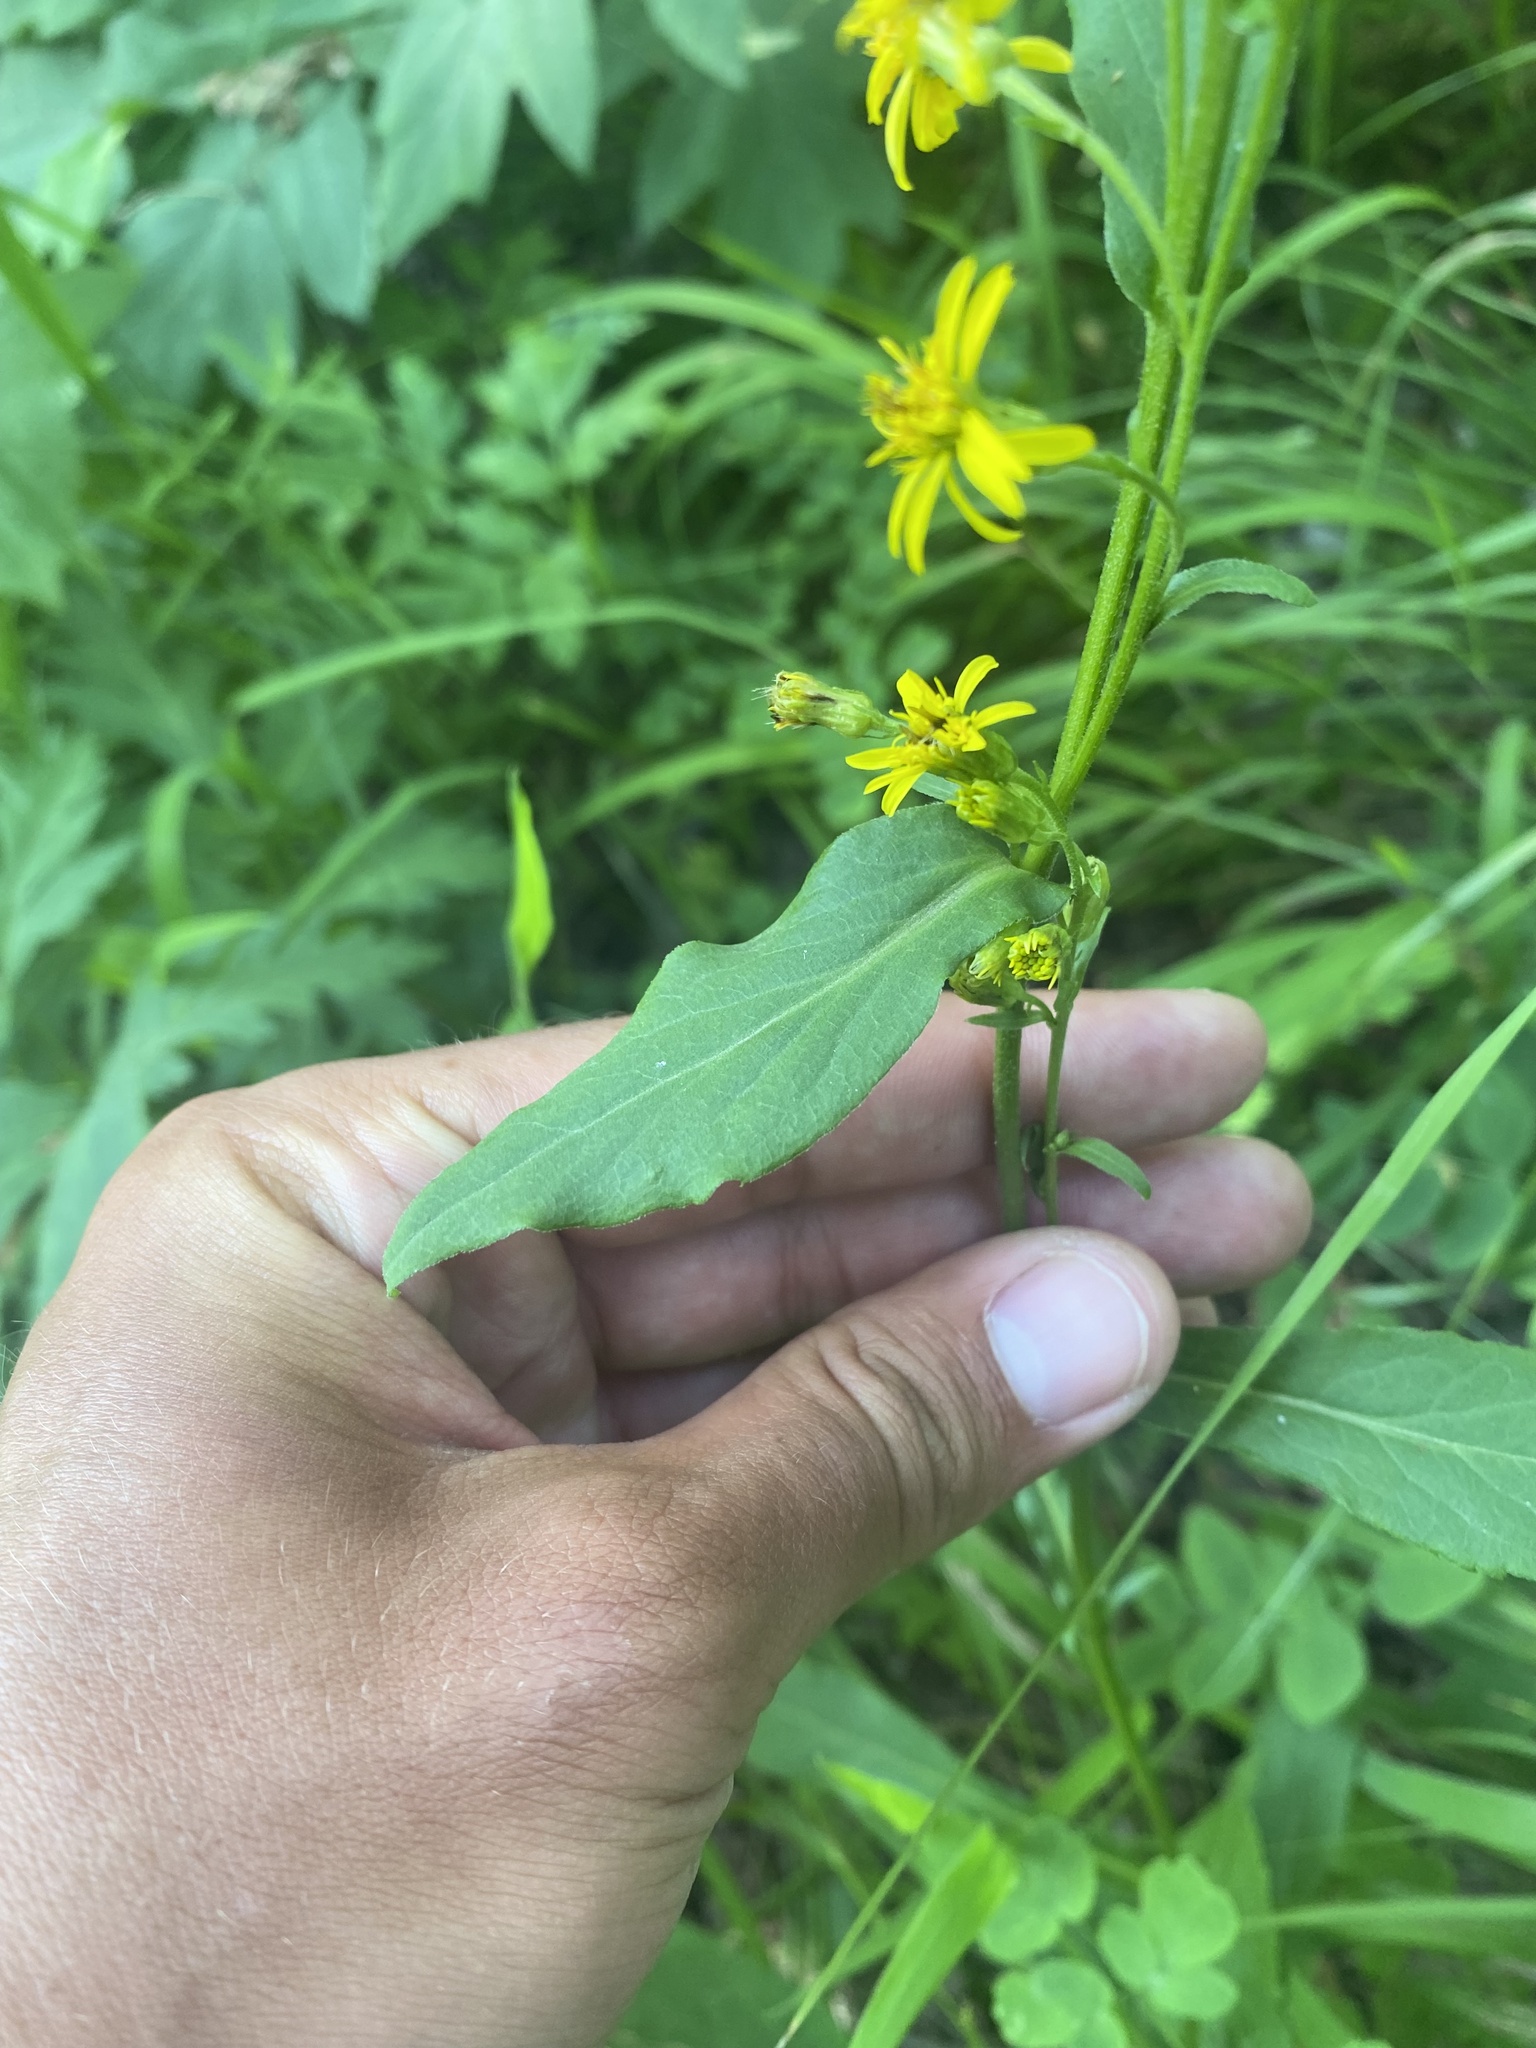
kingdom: Plantae
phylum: Tracheophyta
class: Magnoliopsida
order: Asterales
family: Asteraceae
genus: Solidago
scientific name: Solidago dahurica
